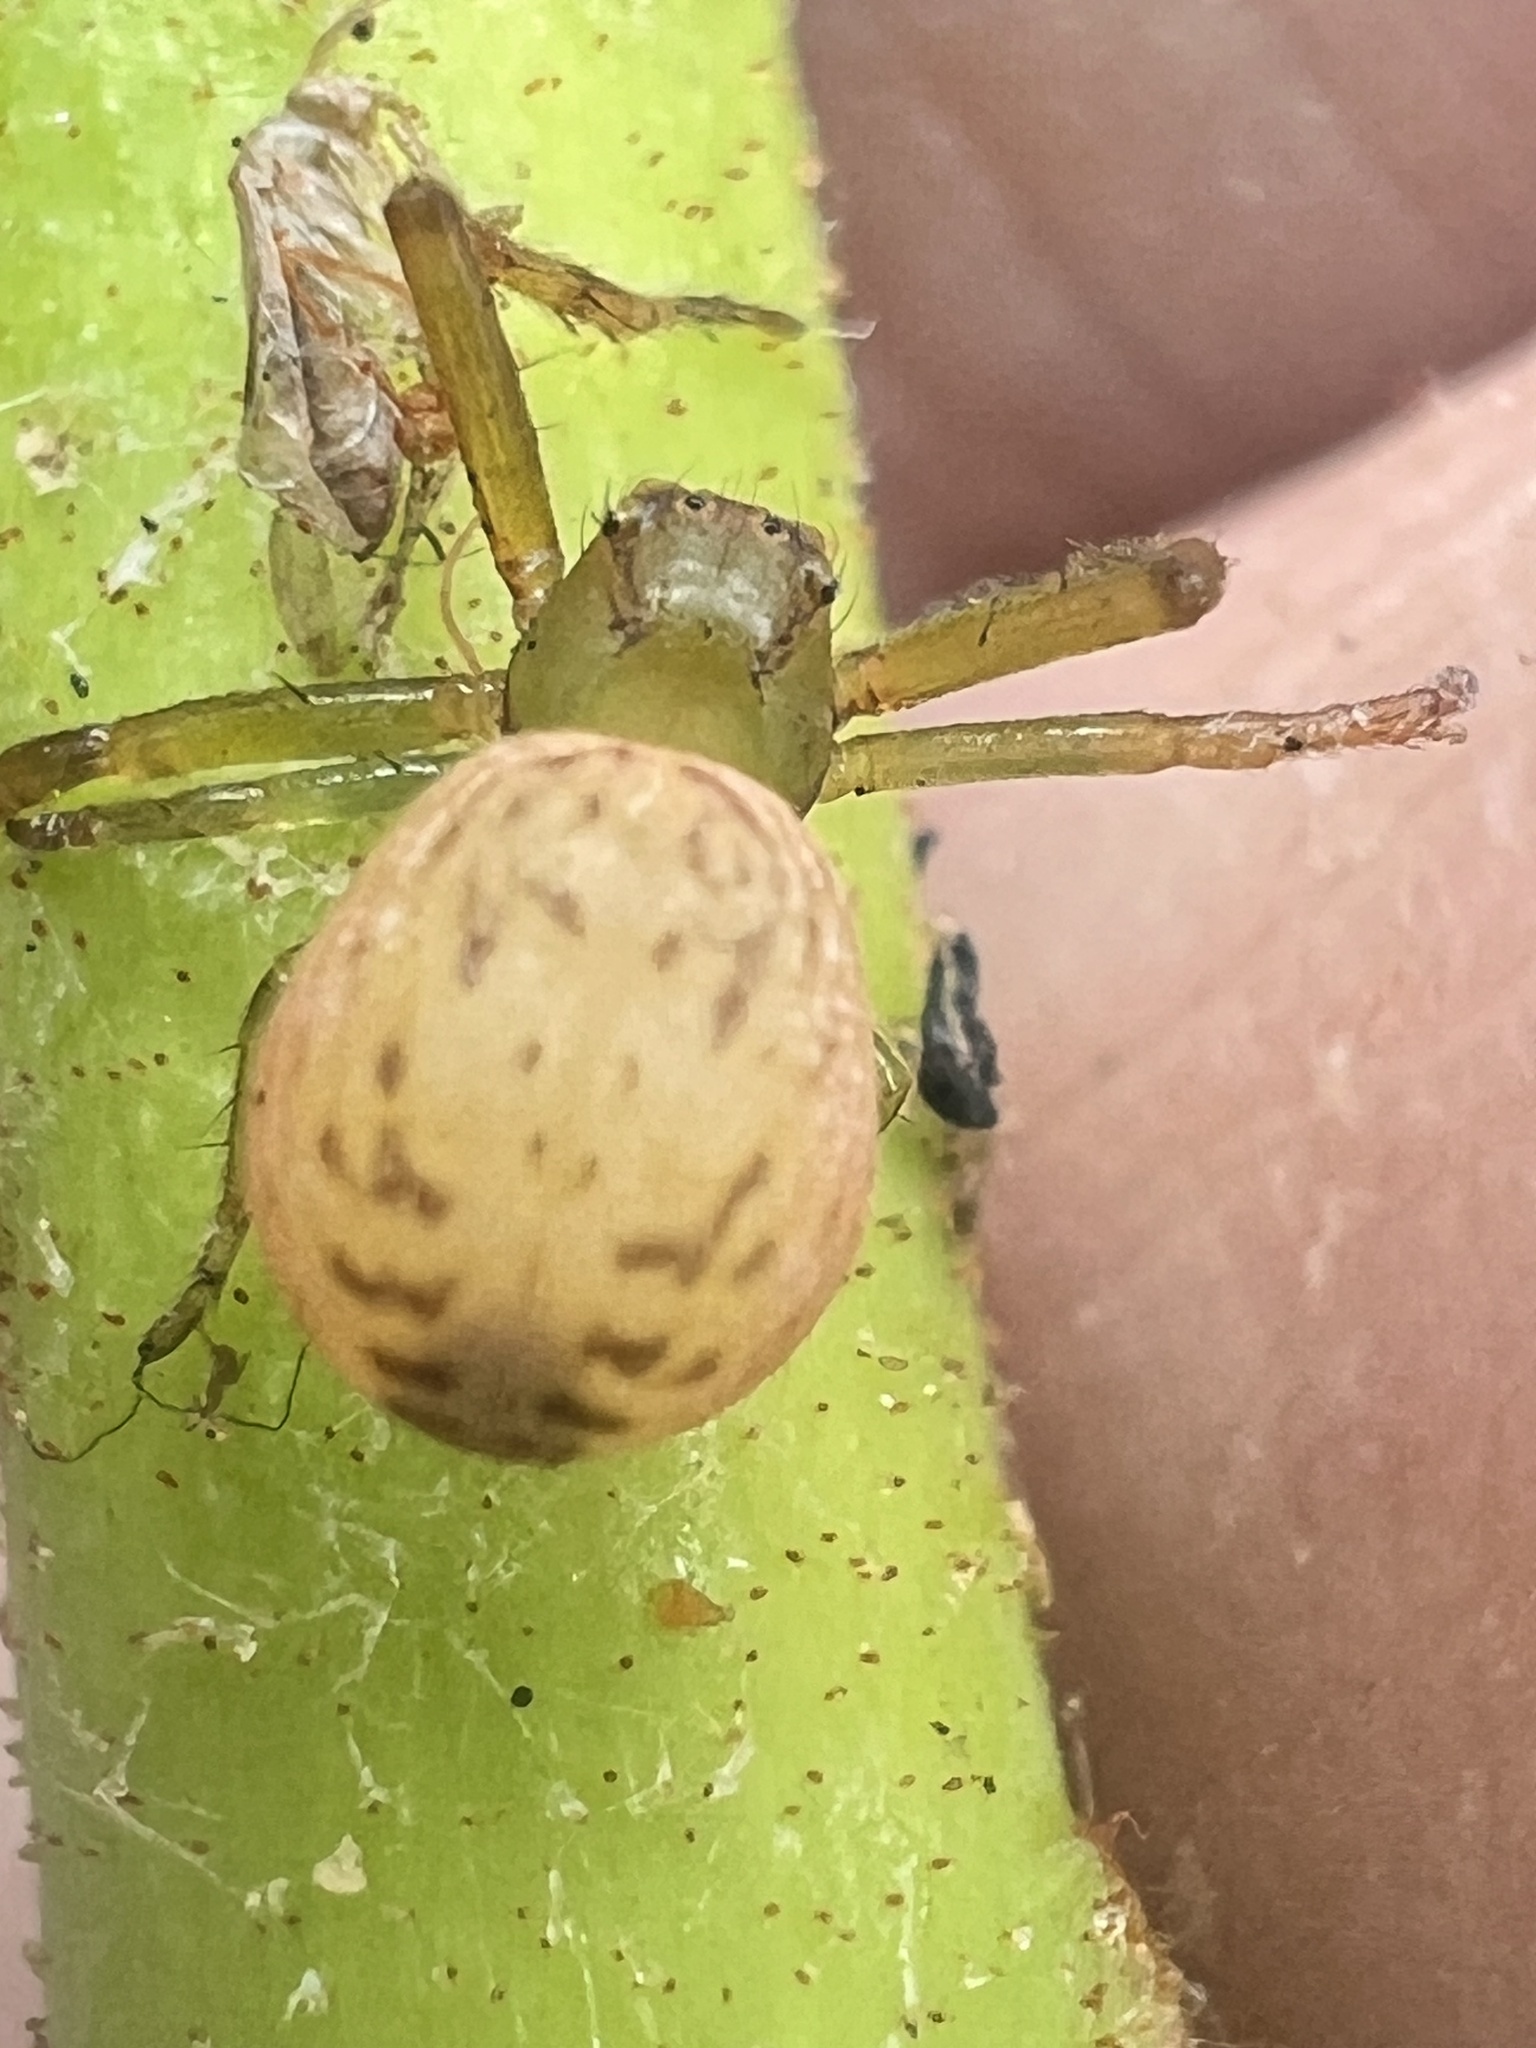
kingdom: Animalia
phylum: Arthropoda
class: Arachnida
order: Araneae
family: Thomisidae
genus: Diaea
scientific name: Diaea ambara
